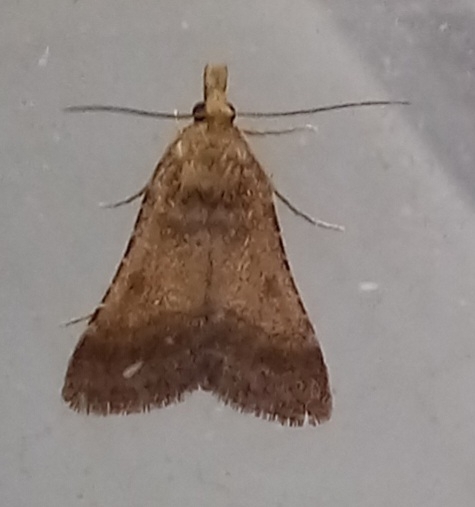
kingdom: Animalia
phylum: Arthropoda
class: Insecta
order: Lepidoptera
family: Pyralidae
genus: Stemmatophora
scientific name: Stemmatophora brunnealis
